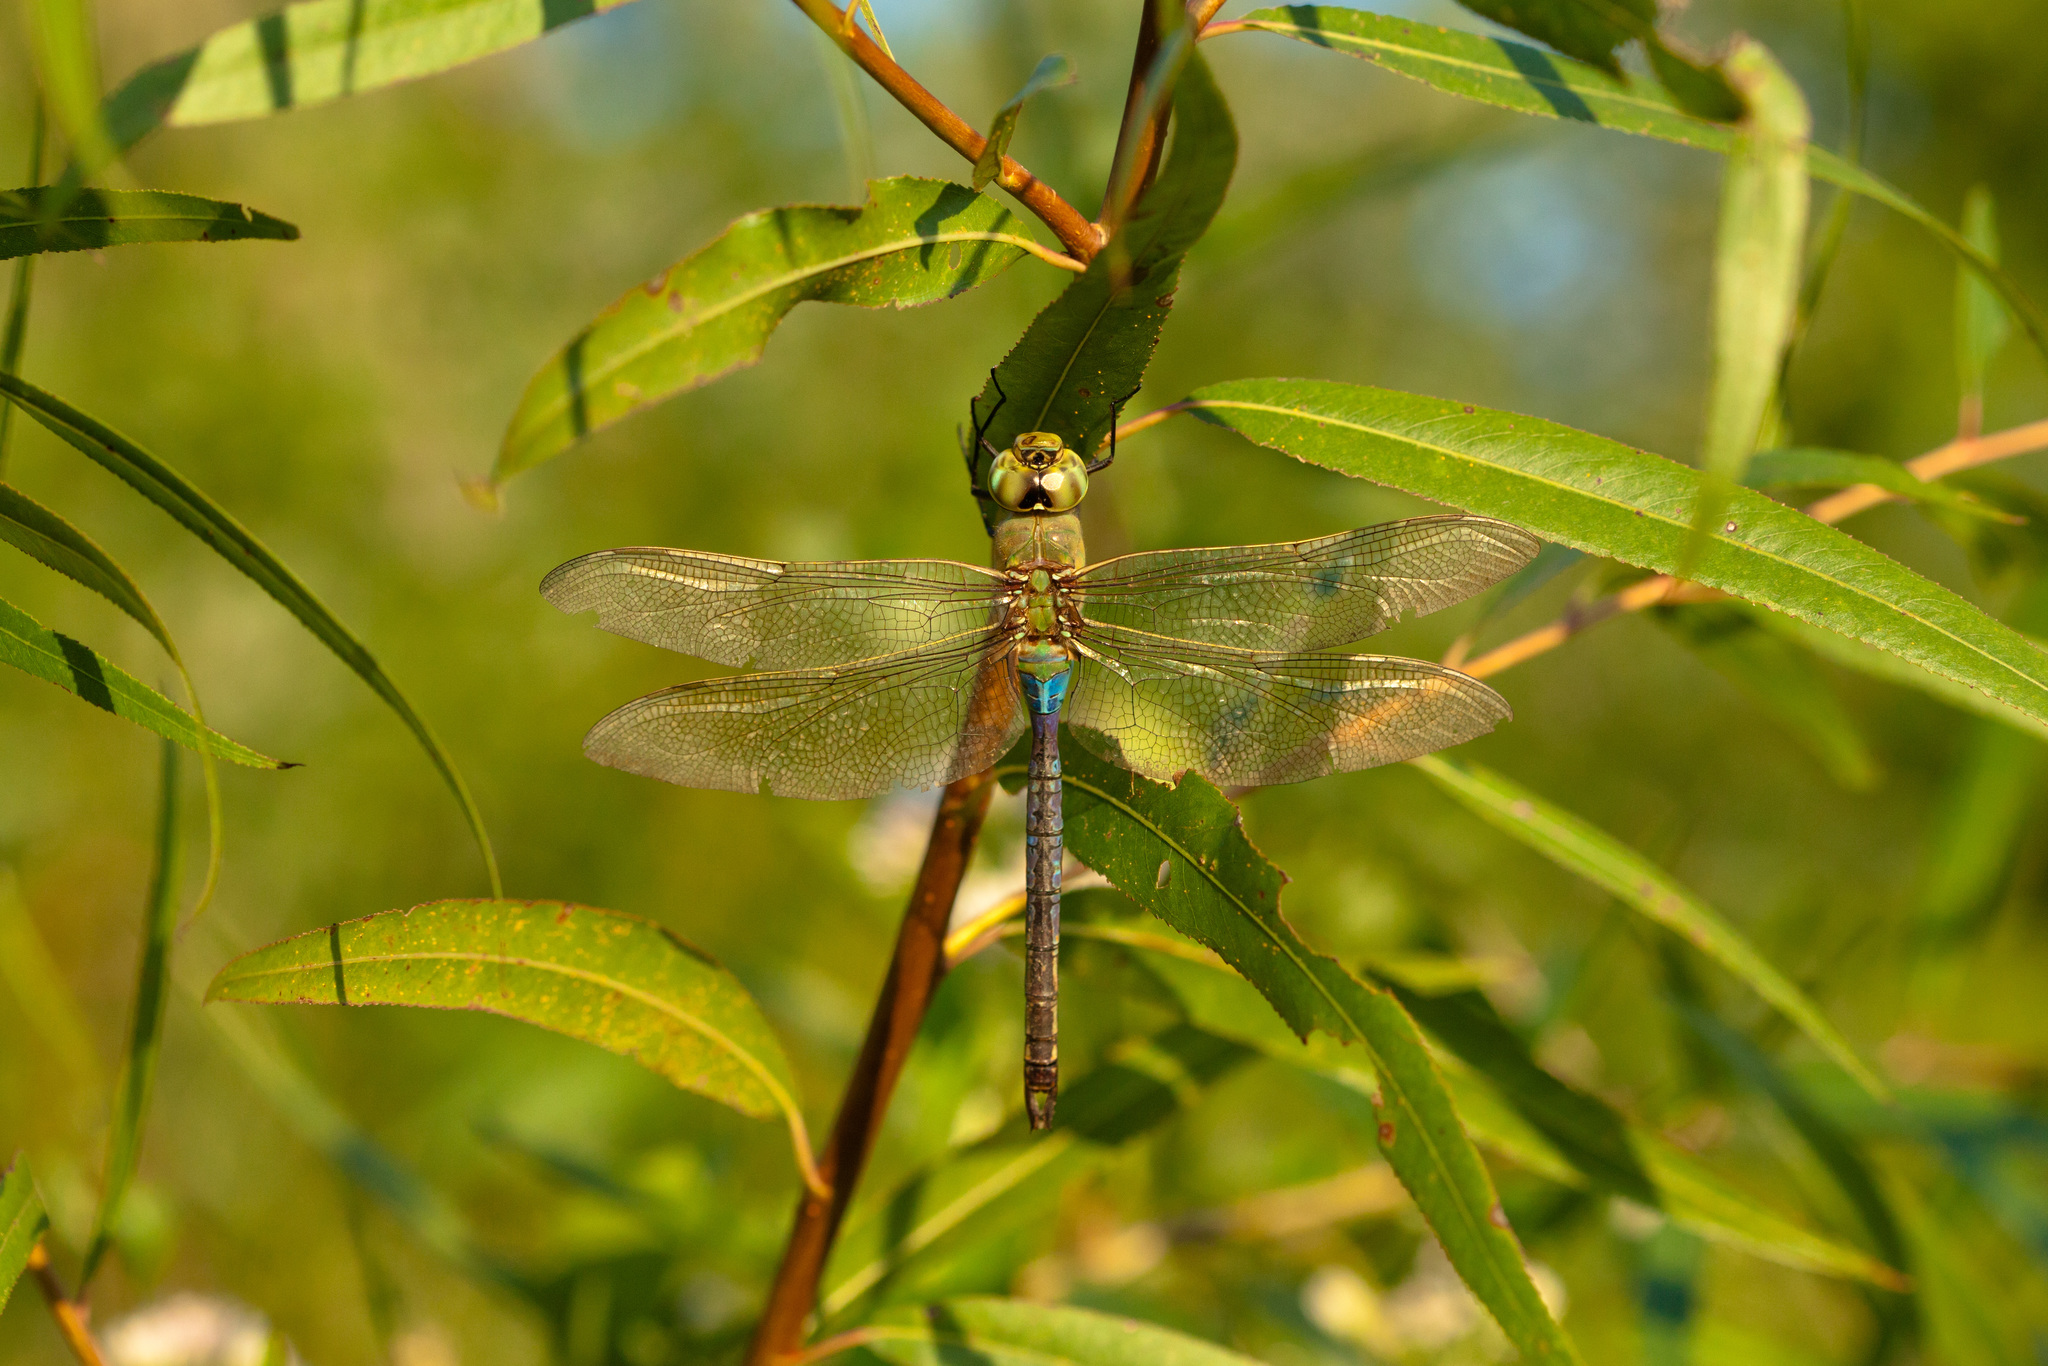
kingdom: Animalia
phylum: Arthropoda
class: Insecta
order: Odonata
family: Aeshnidae
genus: Anax
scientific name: Anax junius
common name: Common green darner
